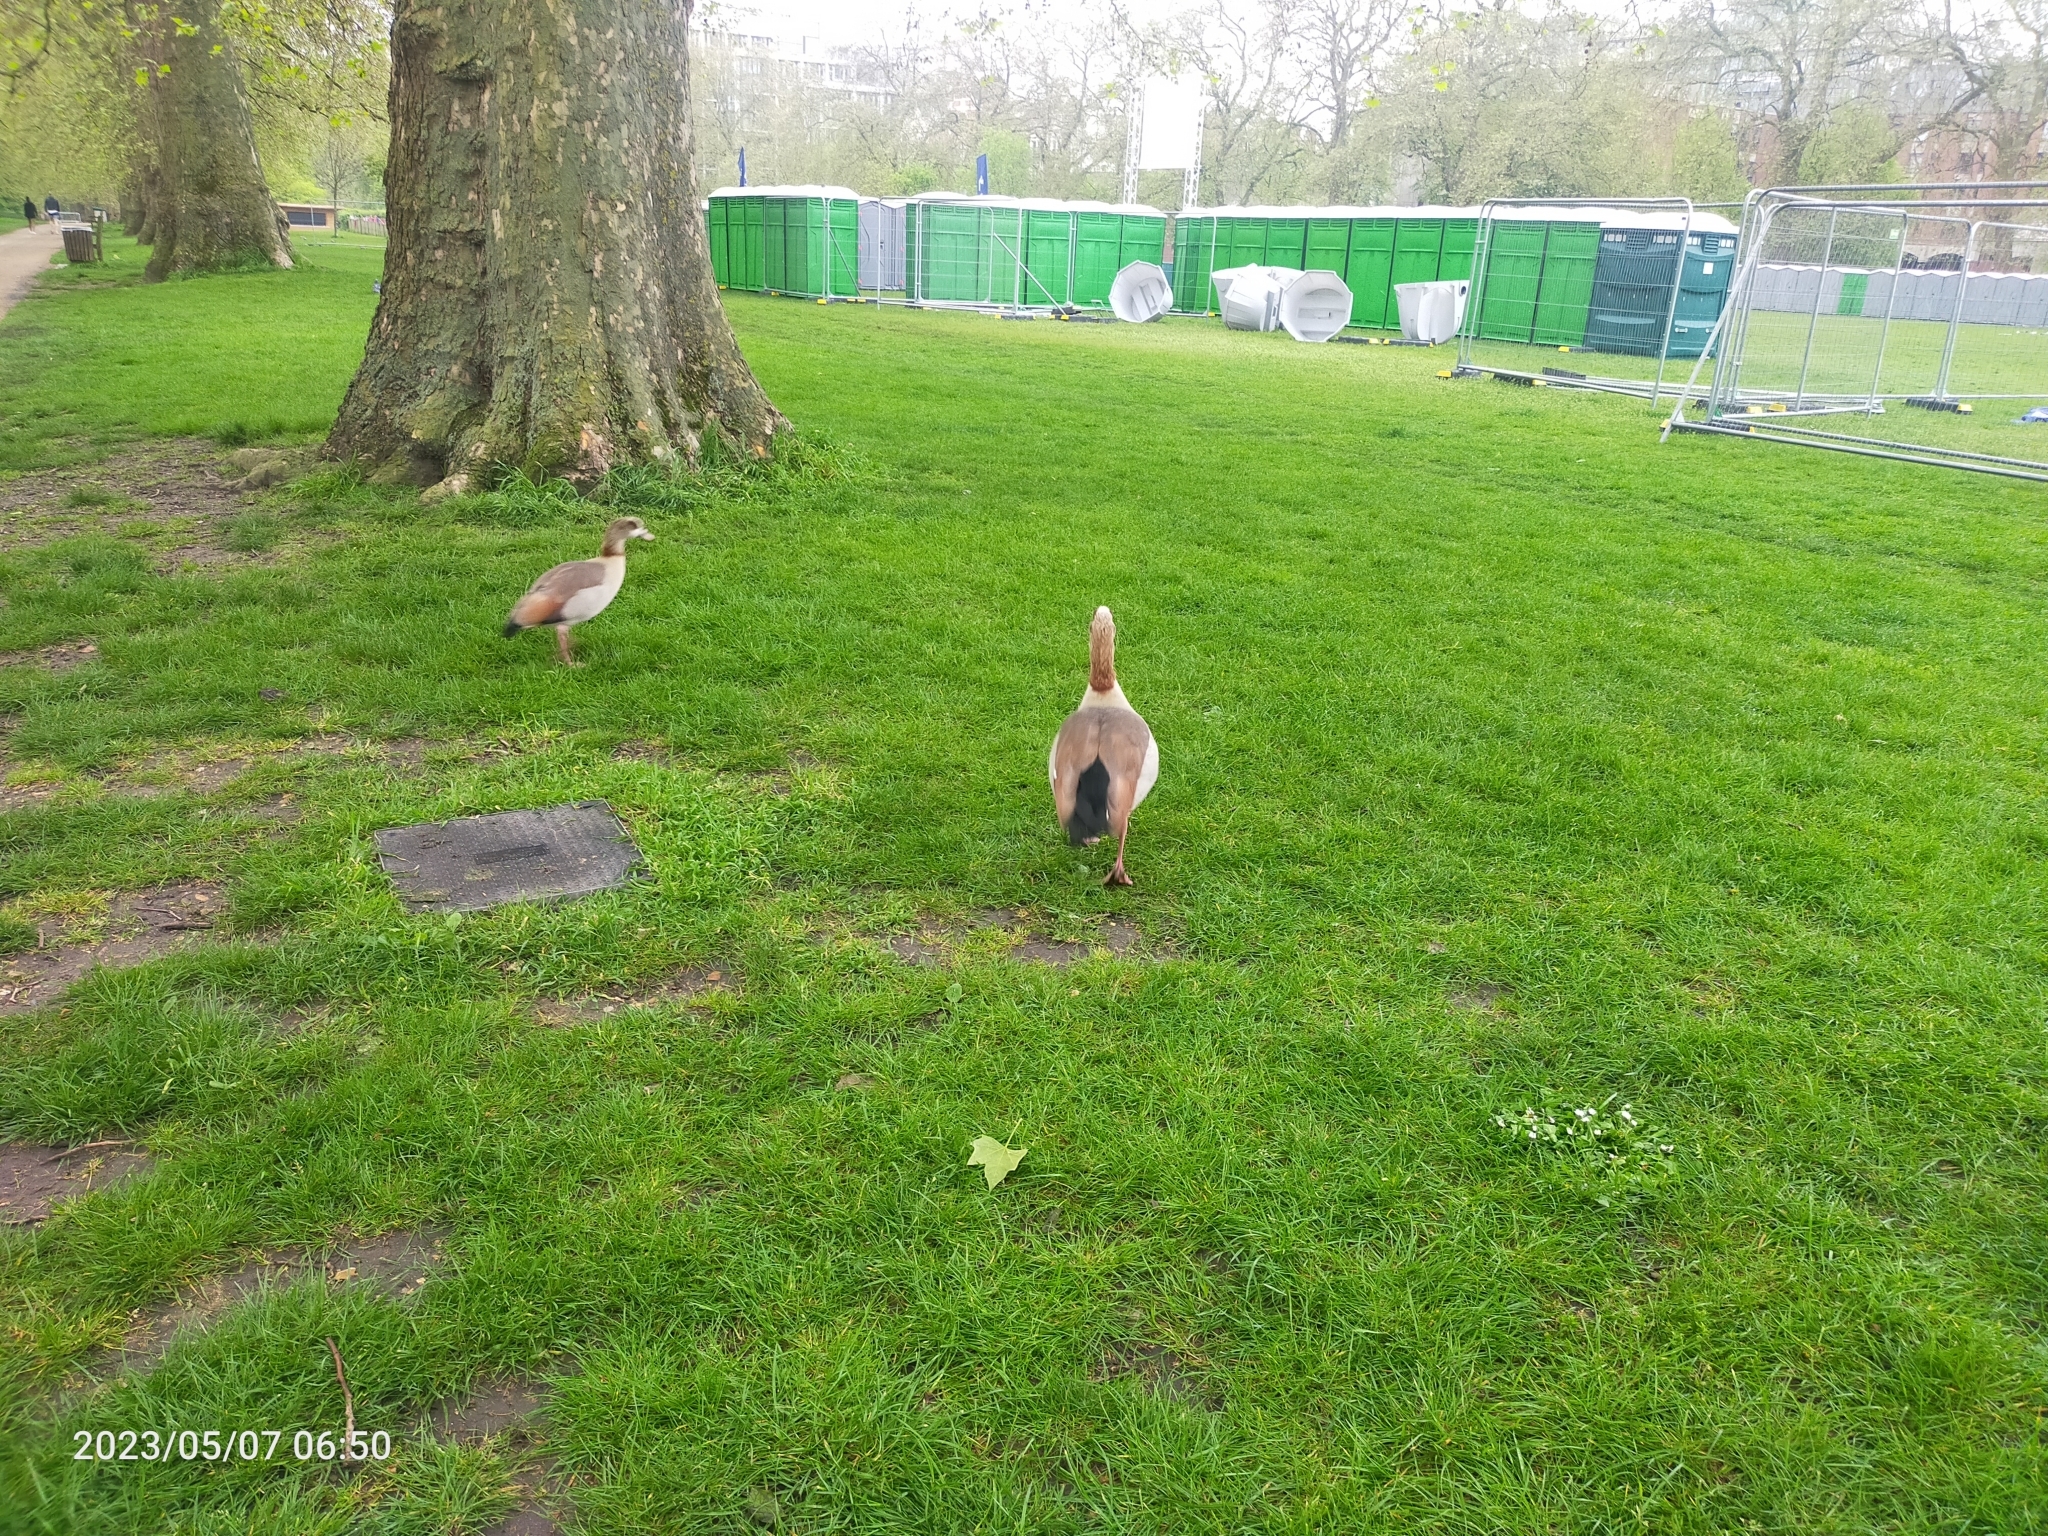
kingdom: Animalia
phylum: Chordata
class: Aves
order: Anseriformes
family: Anatidae
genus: Alopochen
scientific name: Alopochen aegyptiaca
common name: Egyptian goose
